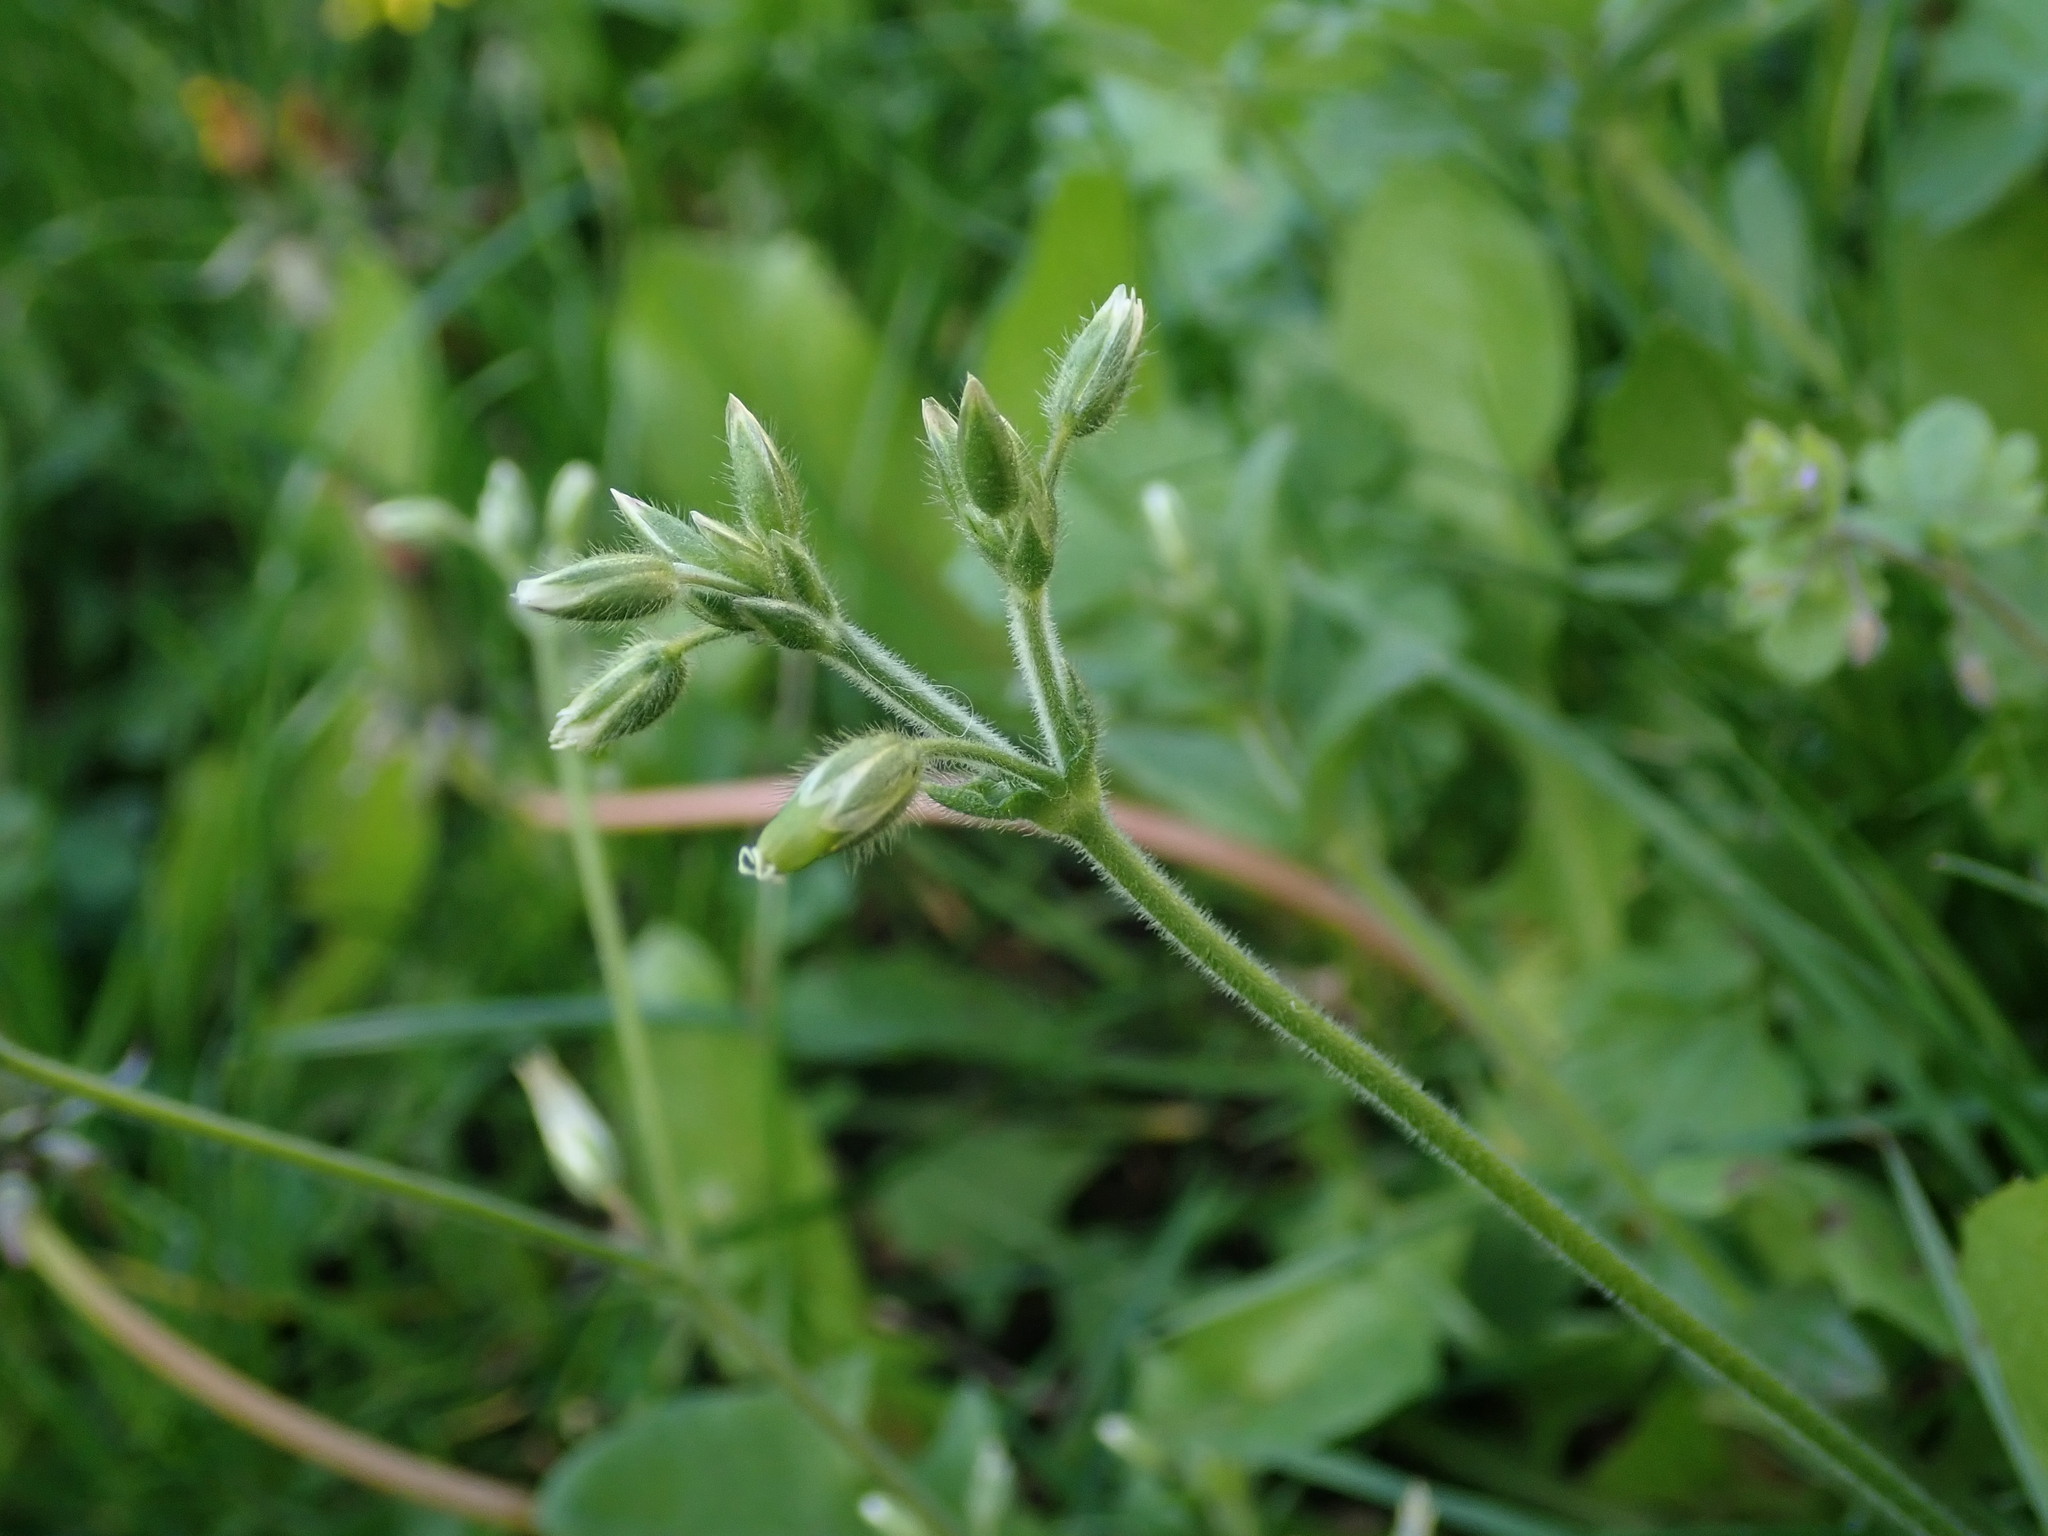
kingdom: Plantae
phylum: Tracheophyta
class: Magnoliopsida
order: Caryophyllales
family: Caryophyllaceae
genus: Cerastium
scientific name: Cerastium fontanum
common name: Common mouse-ear
